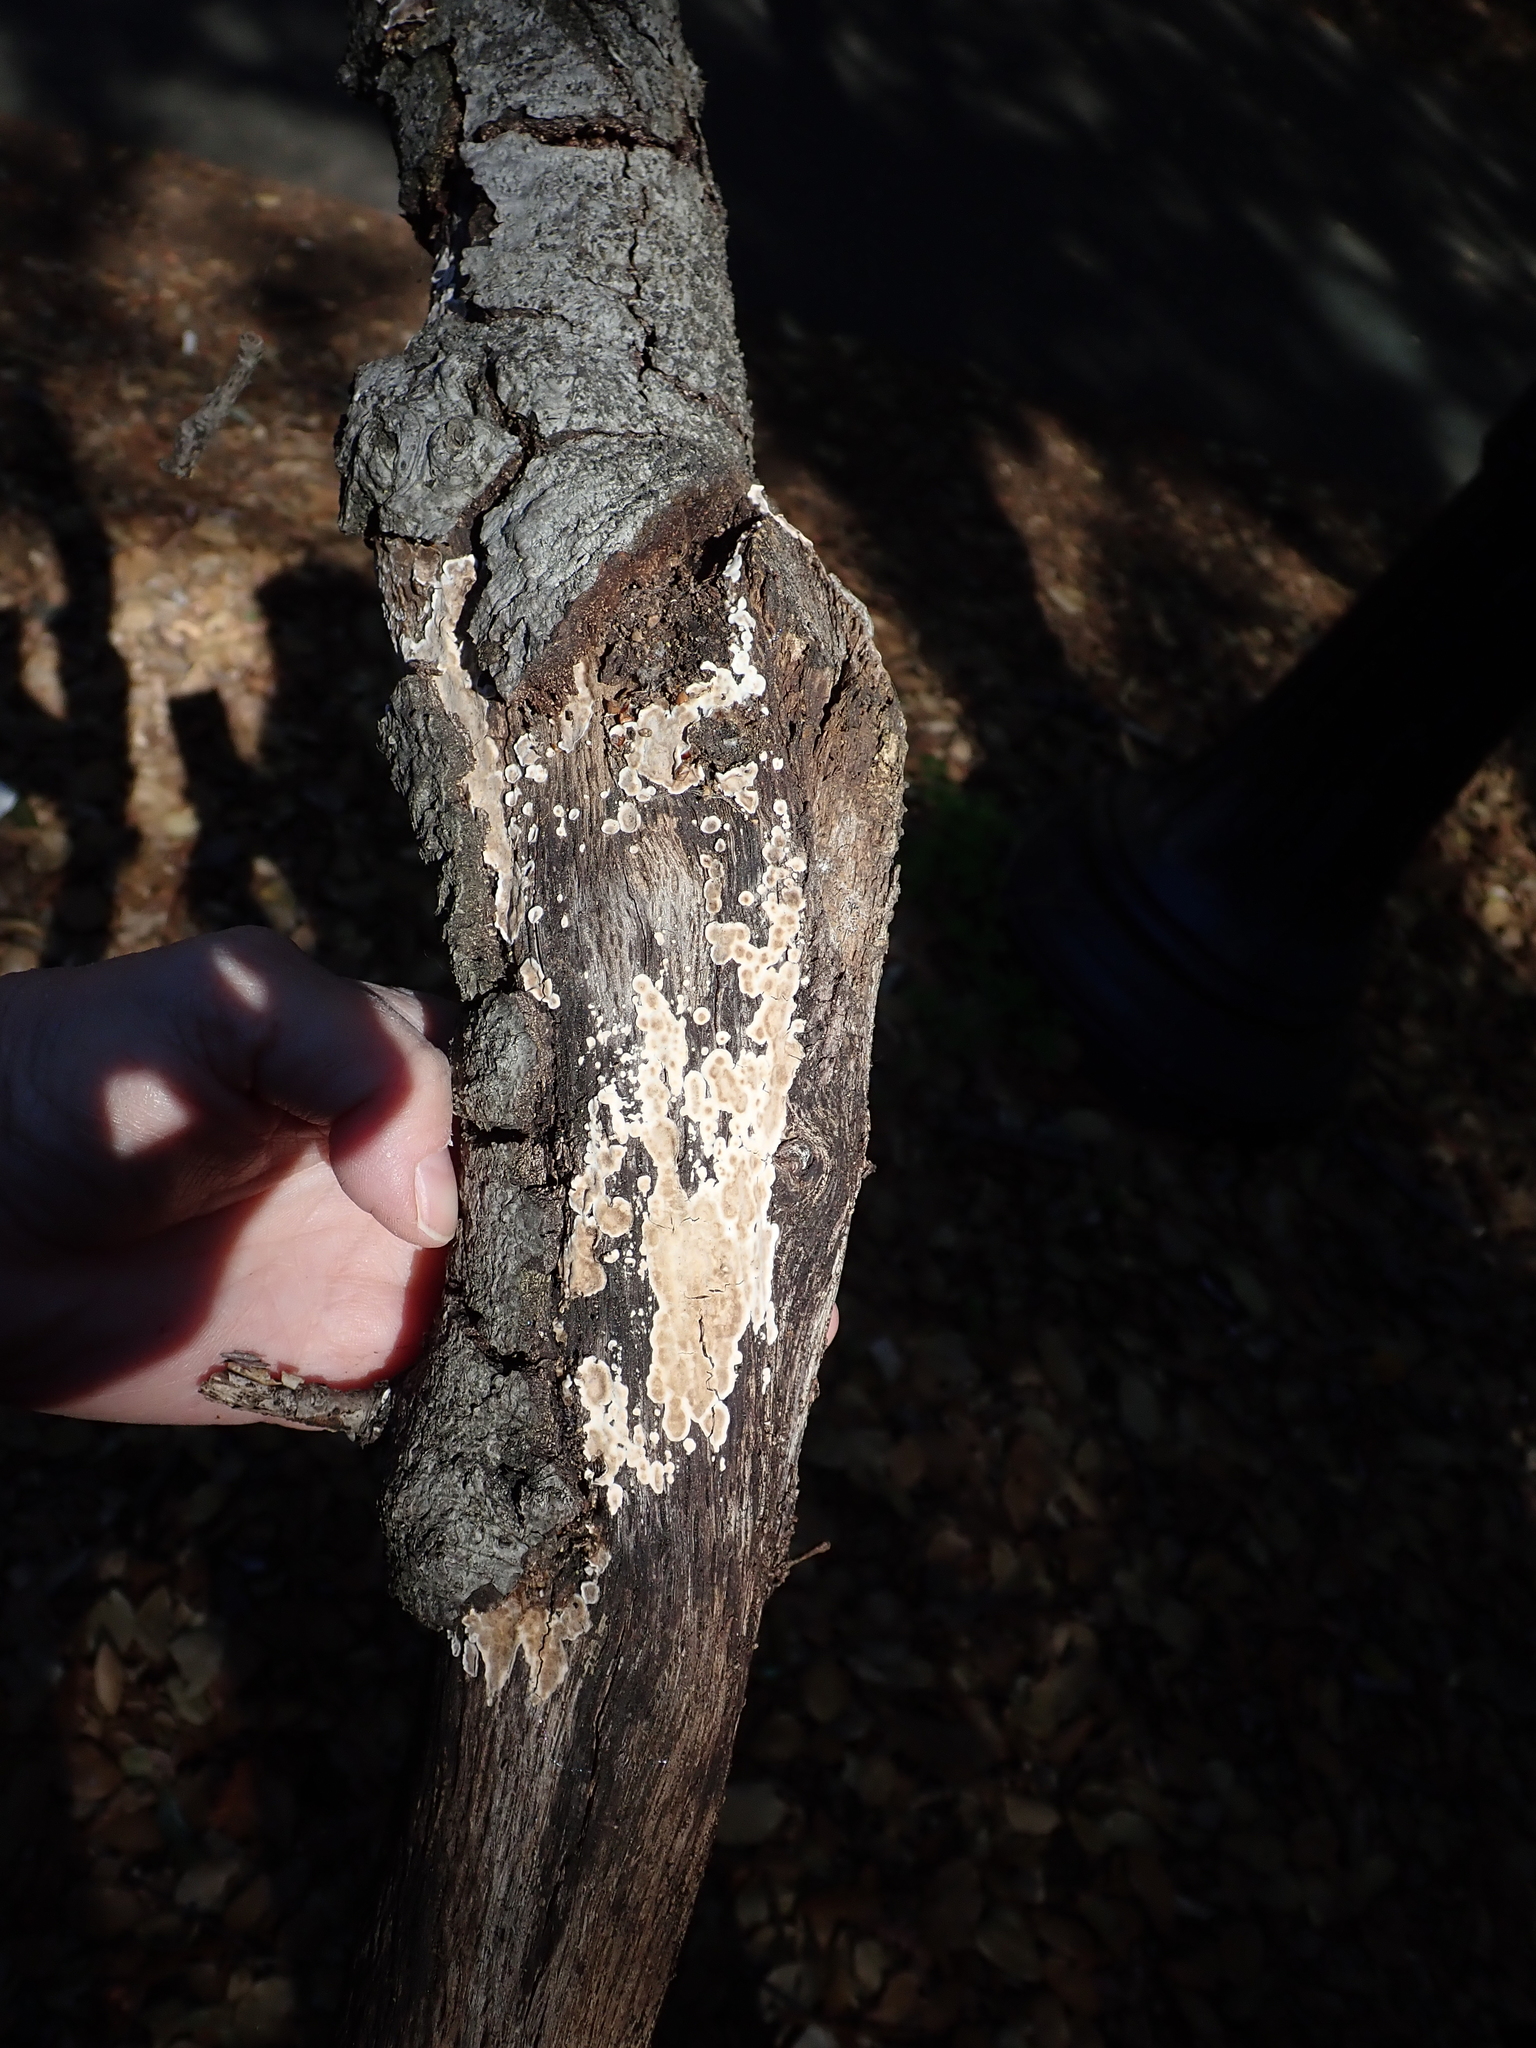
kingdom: Fungi
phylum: Basidiomycota
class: Agaricomycetes
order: Russulales
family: Peniophoraceae
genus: Peniophora
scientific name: Peniophora albobadia
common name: Giraffe spots
